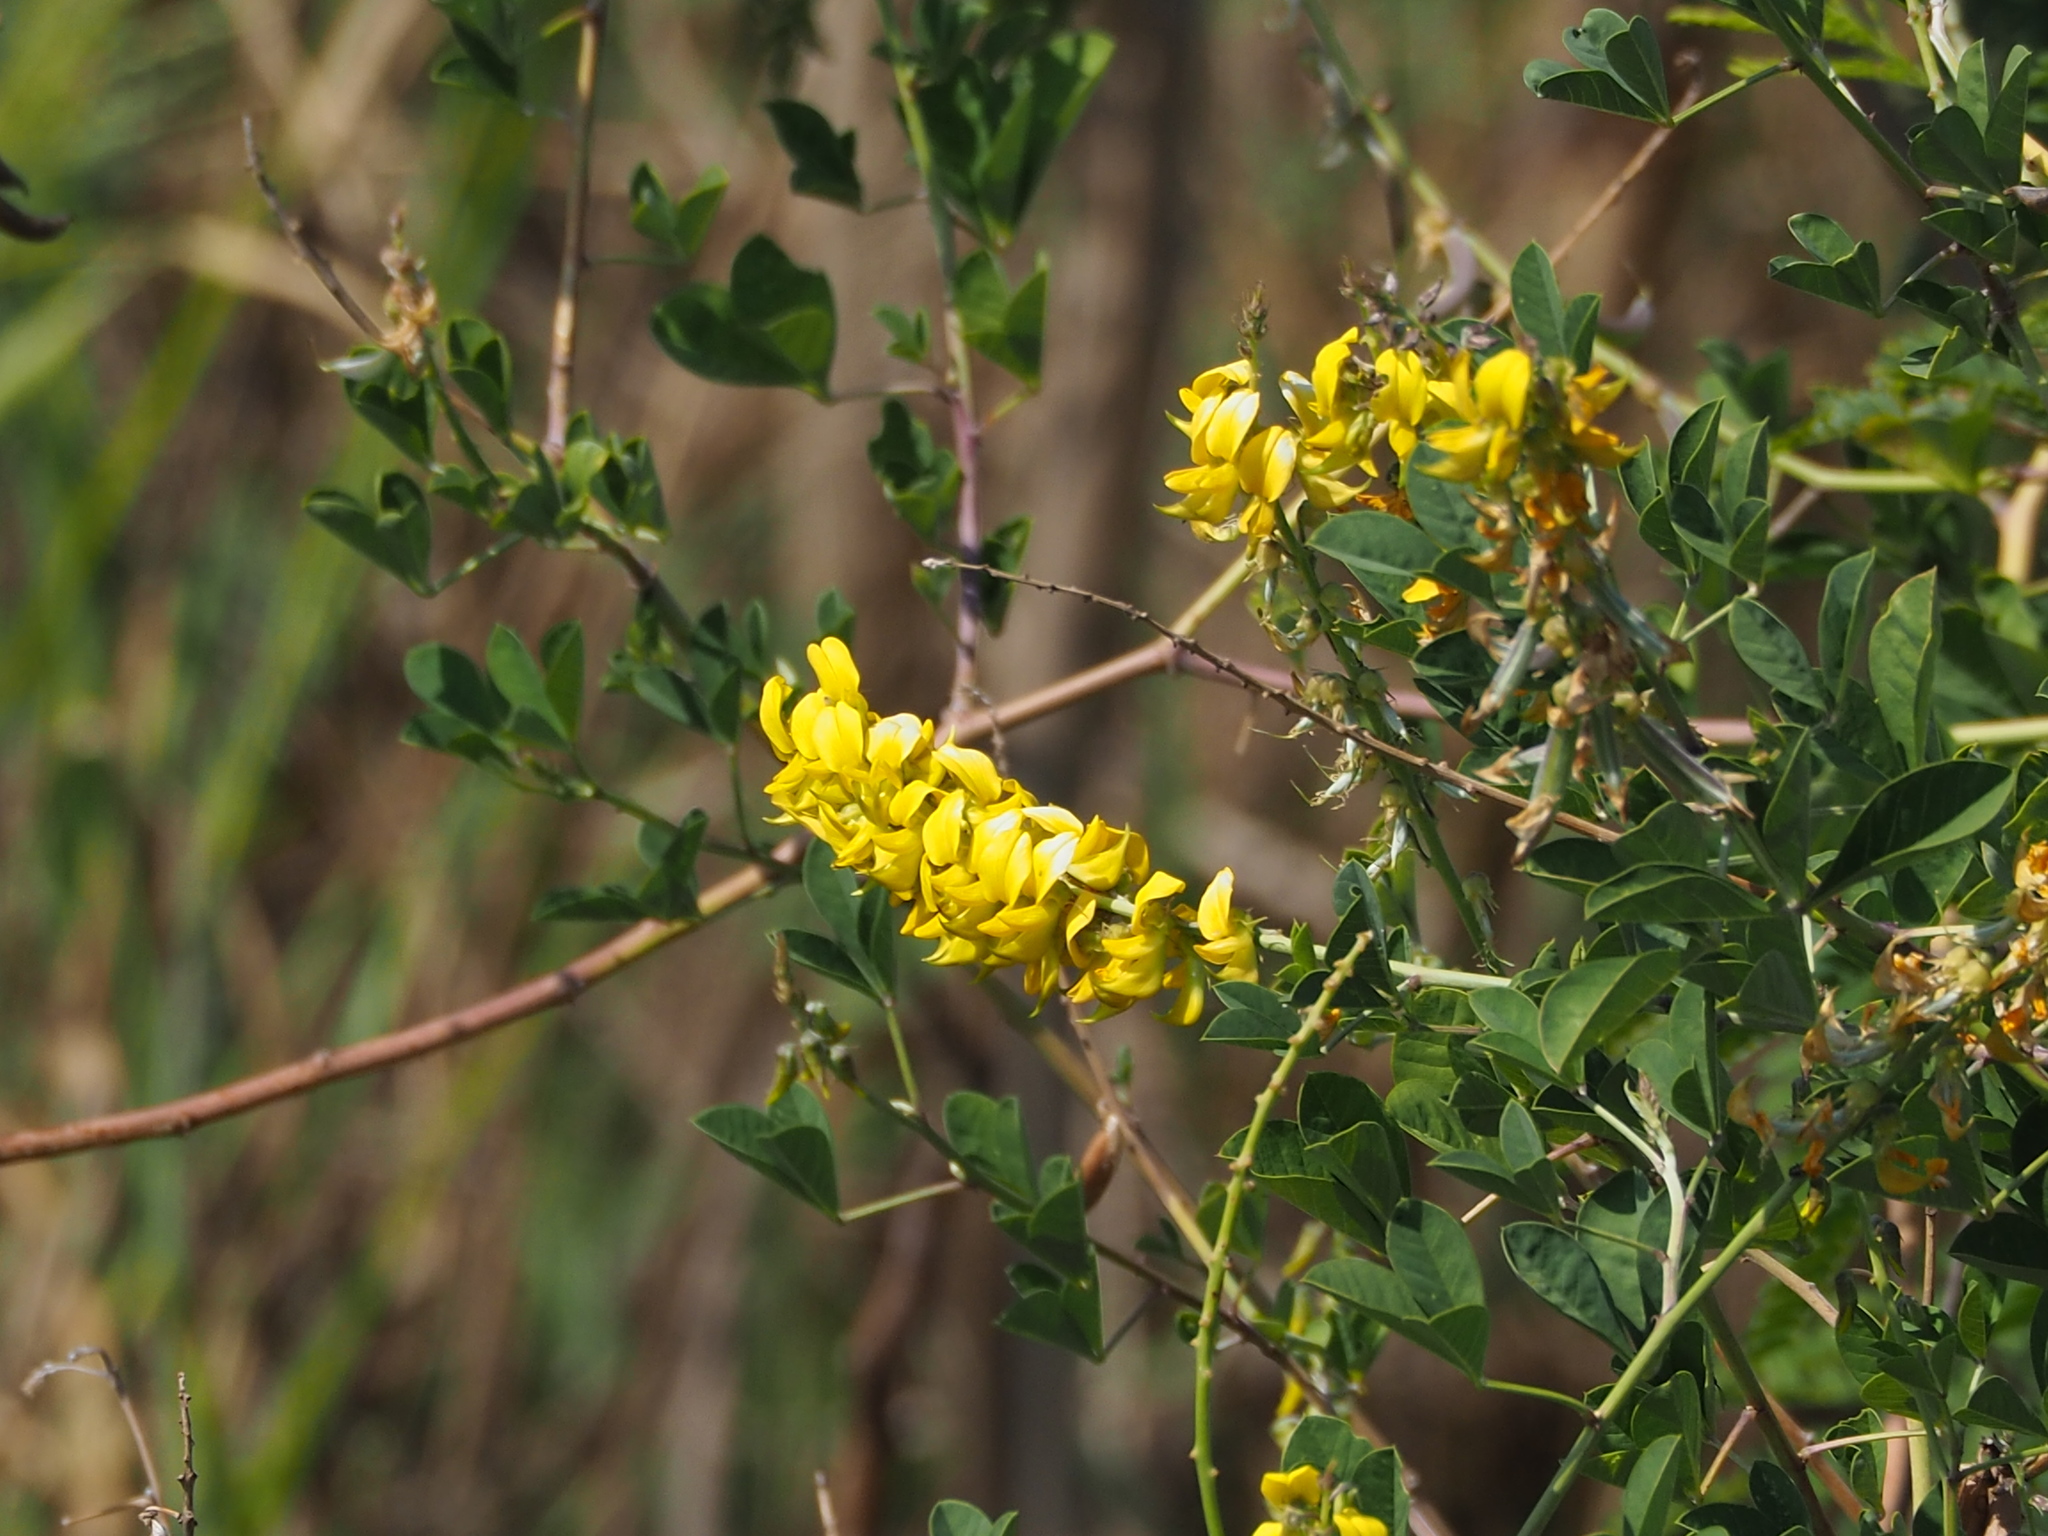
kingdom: Plantae
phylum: Tracheophyta
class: Magnoliopsida
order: Fabales
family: Fabaceae
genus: Crotalaria
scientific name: Crotalaria pallida
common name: Smooth rattlebox
